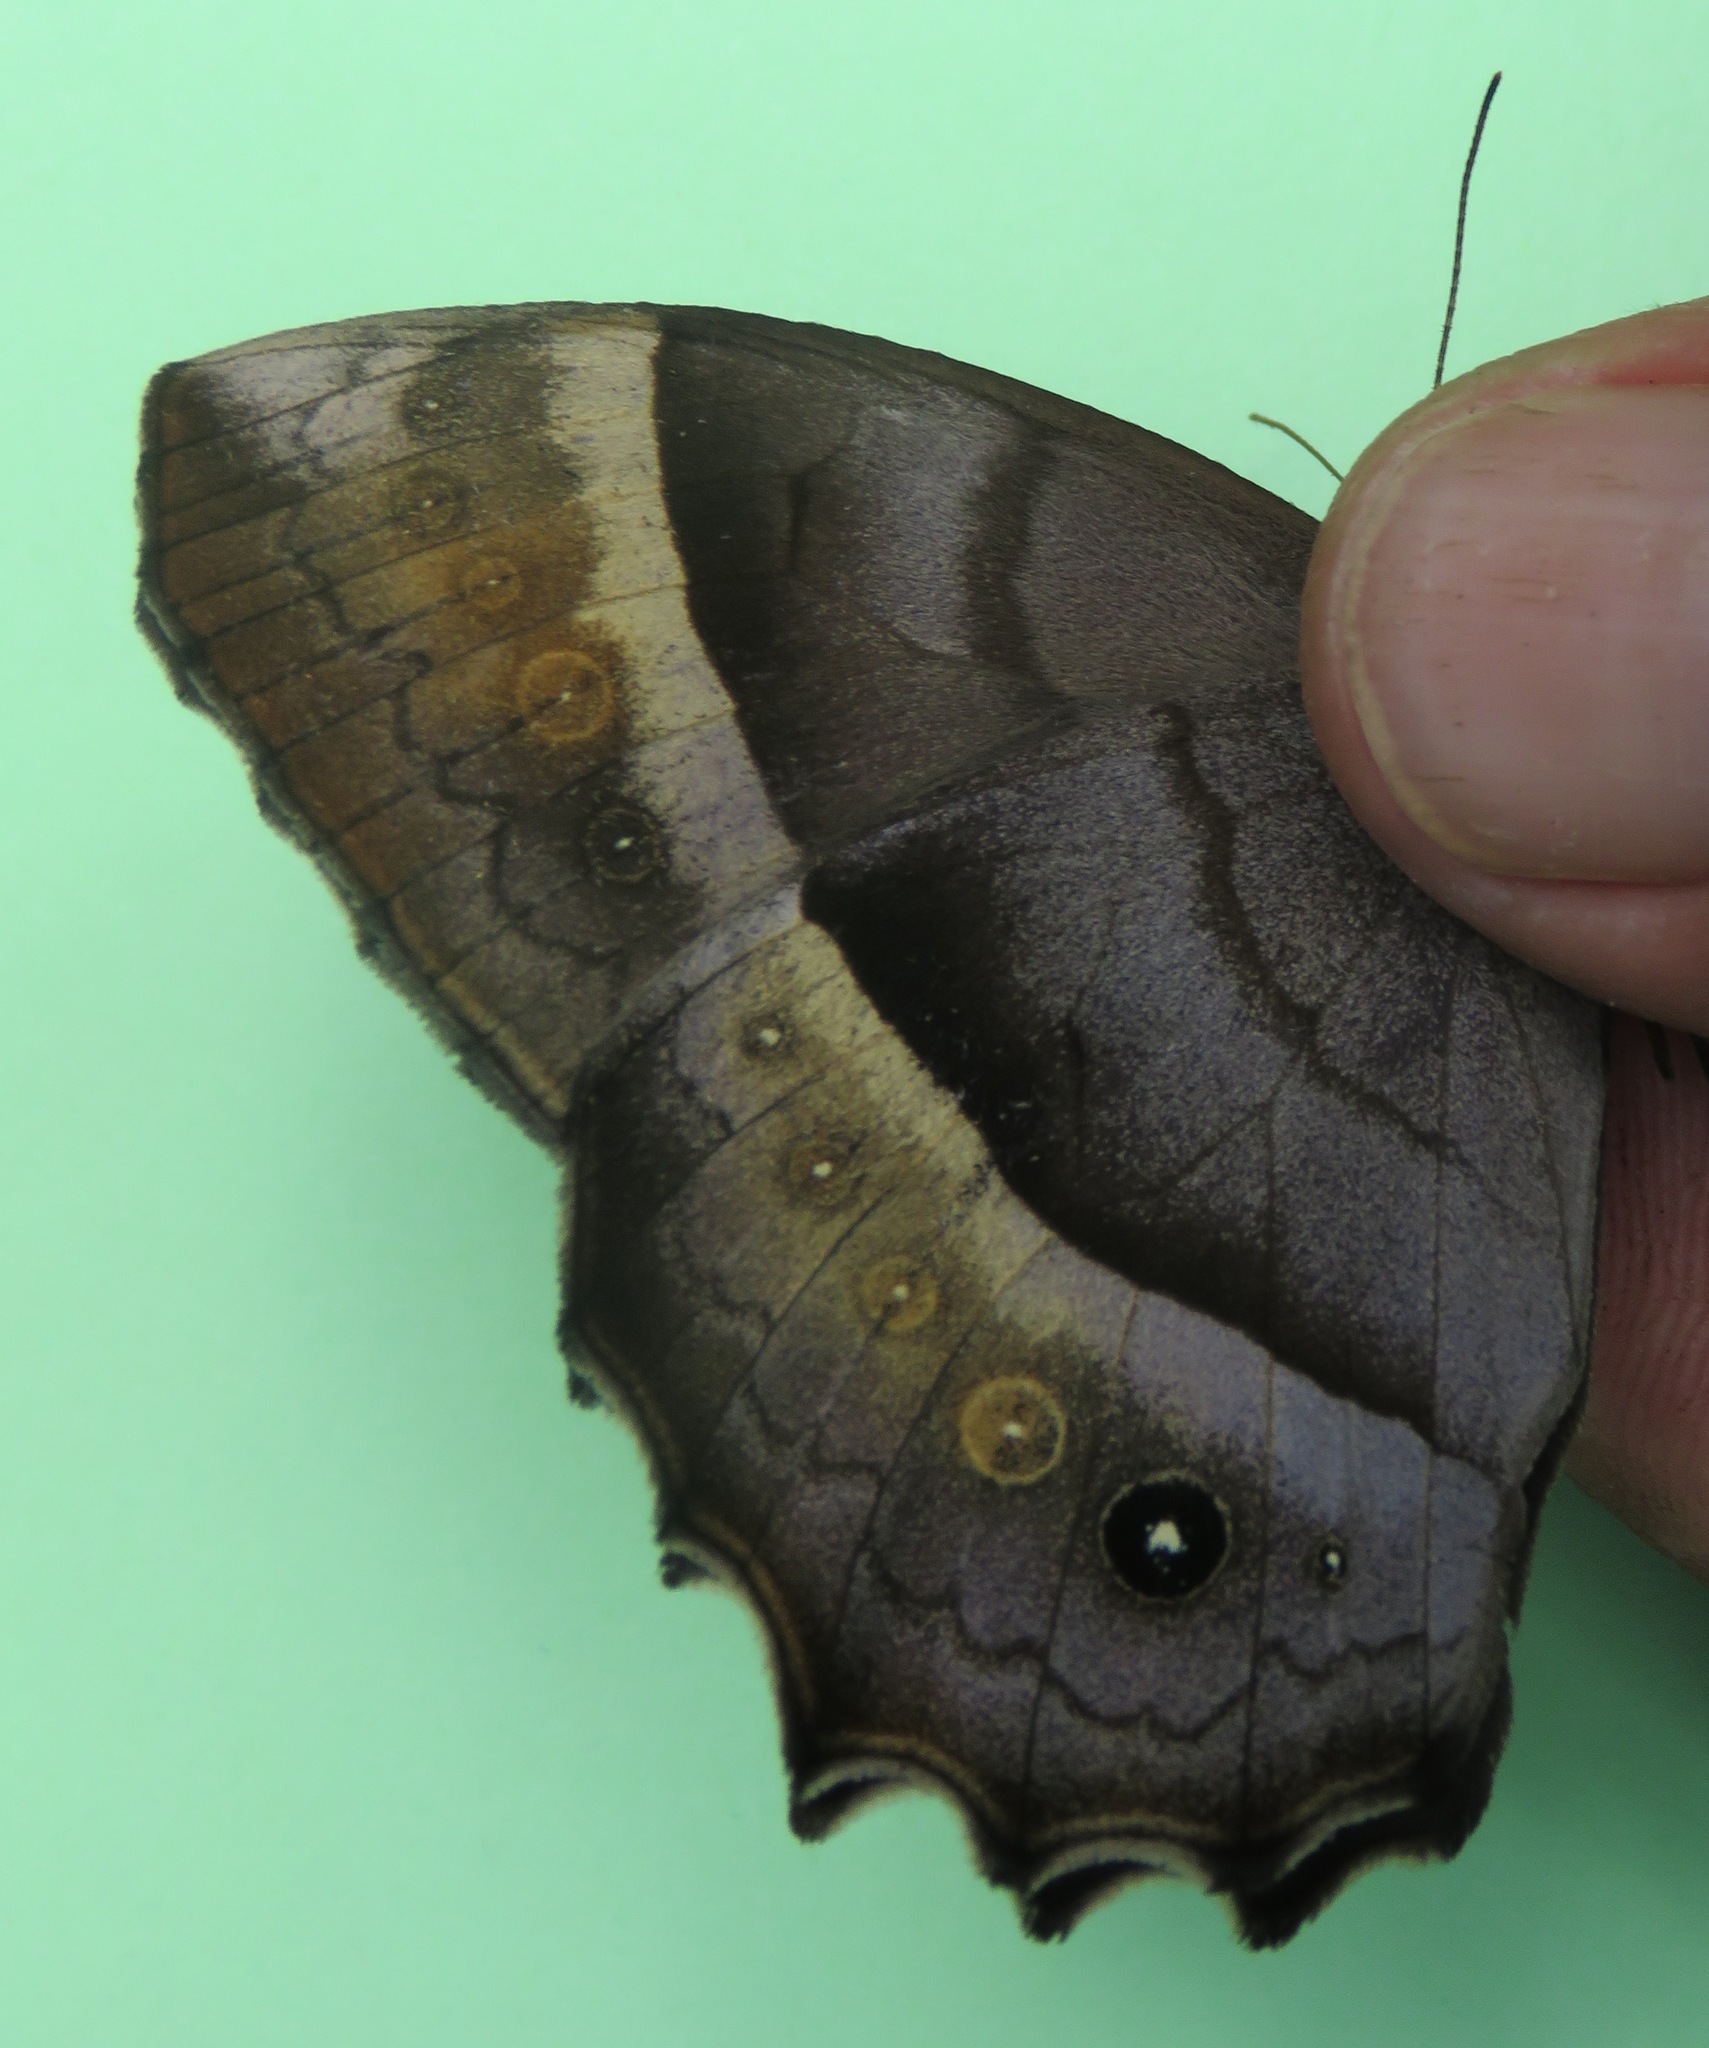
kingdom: Animalia
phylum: Arthropoda
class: Insecta
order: Lepidoptera
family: Nymphalidae
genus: Taygetis
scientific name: Taygetis andromeda
